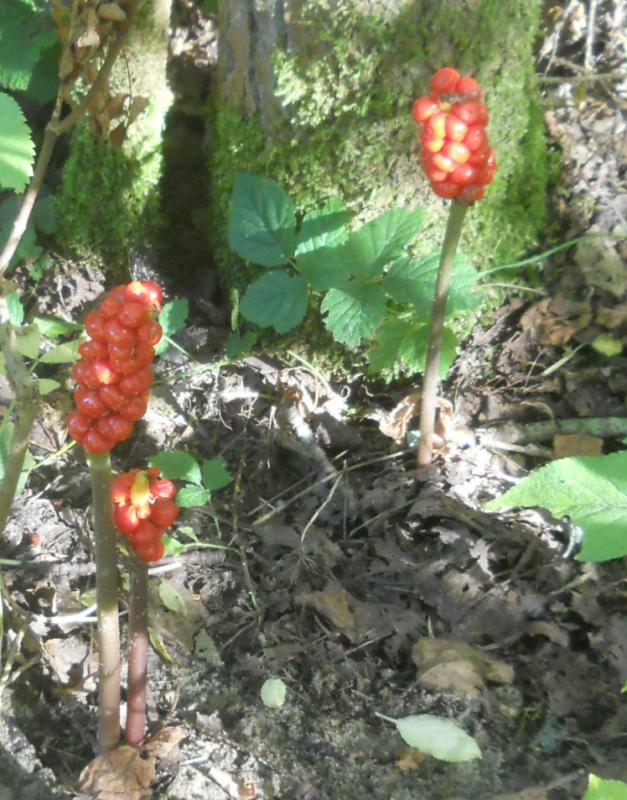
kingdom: Plantae
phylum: Tracheophyta
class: Liliopsida
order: Alismatales
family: Araceae
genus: Arum
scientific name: Arum maculatum
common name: Lords-and-ladies
